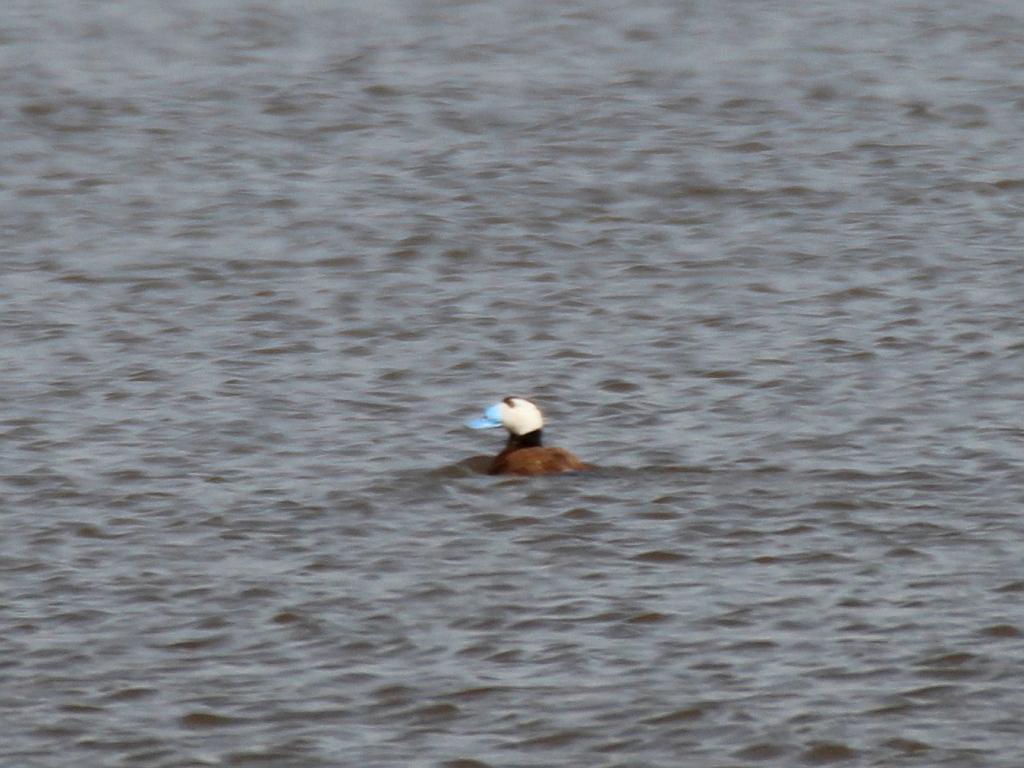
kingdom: Animalia
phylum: Chordata
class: Aves
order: Anseriformes
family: Anatidae
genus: Oxyura
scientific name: Oxyura leucocephala
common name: White-headed duck
